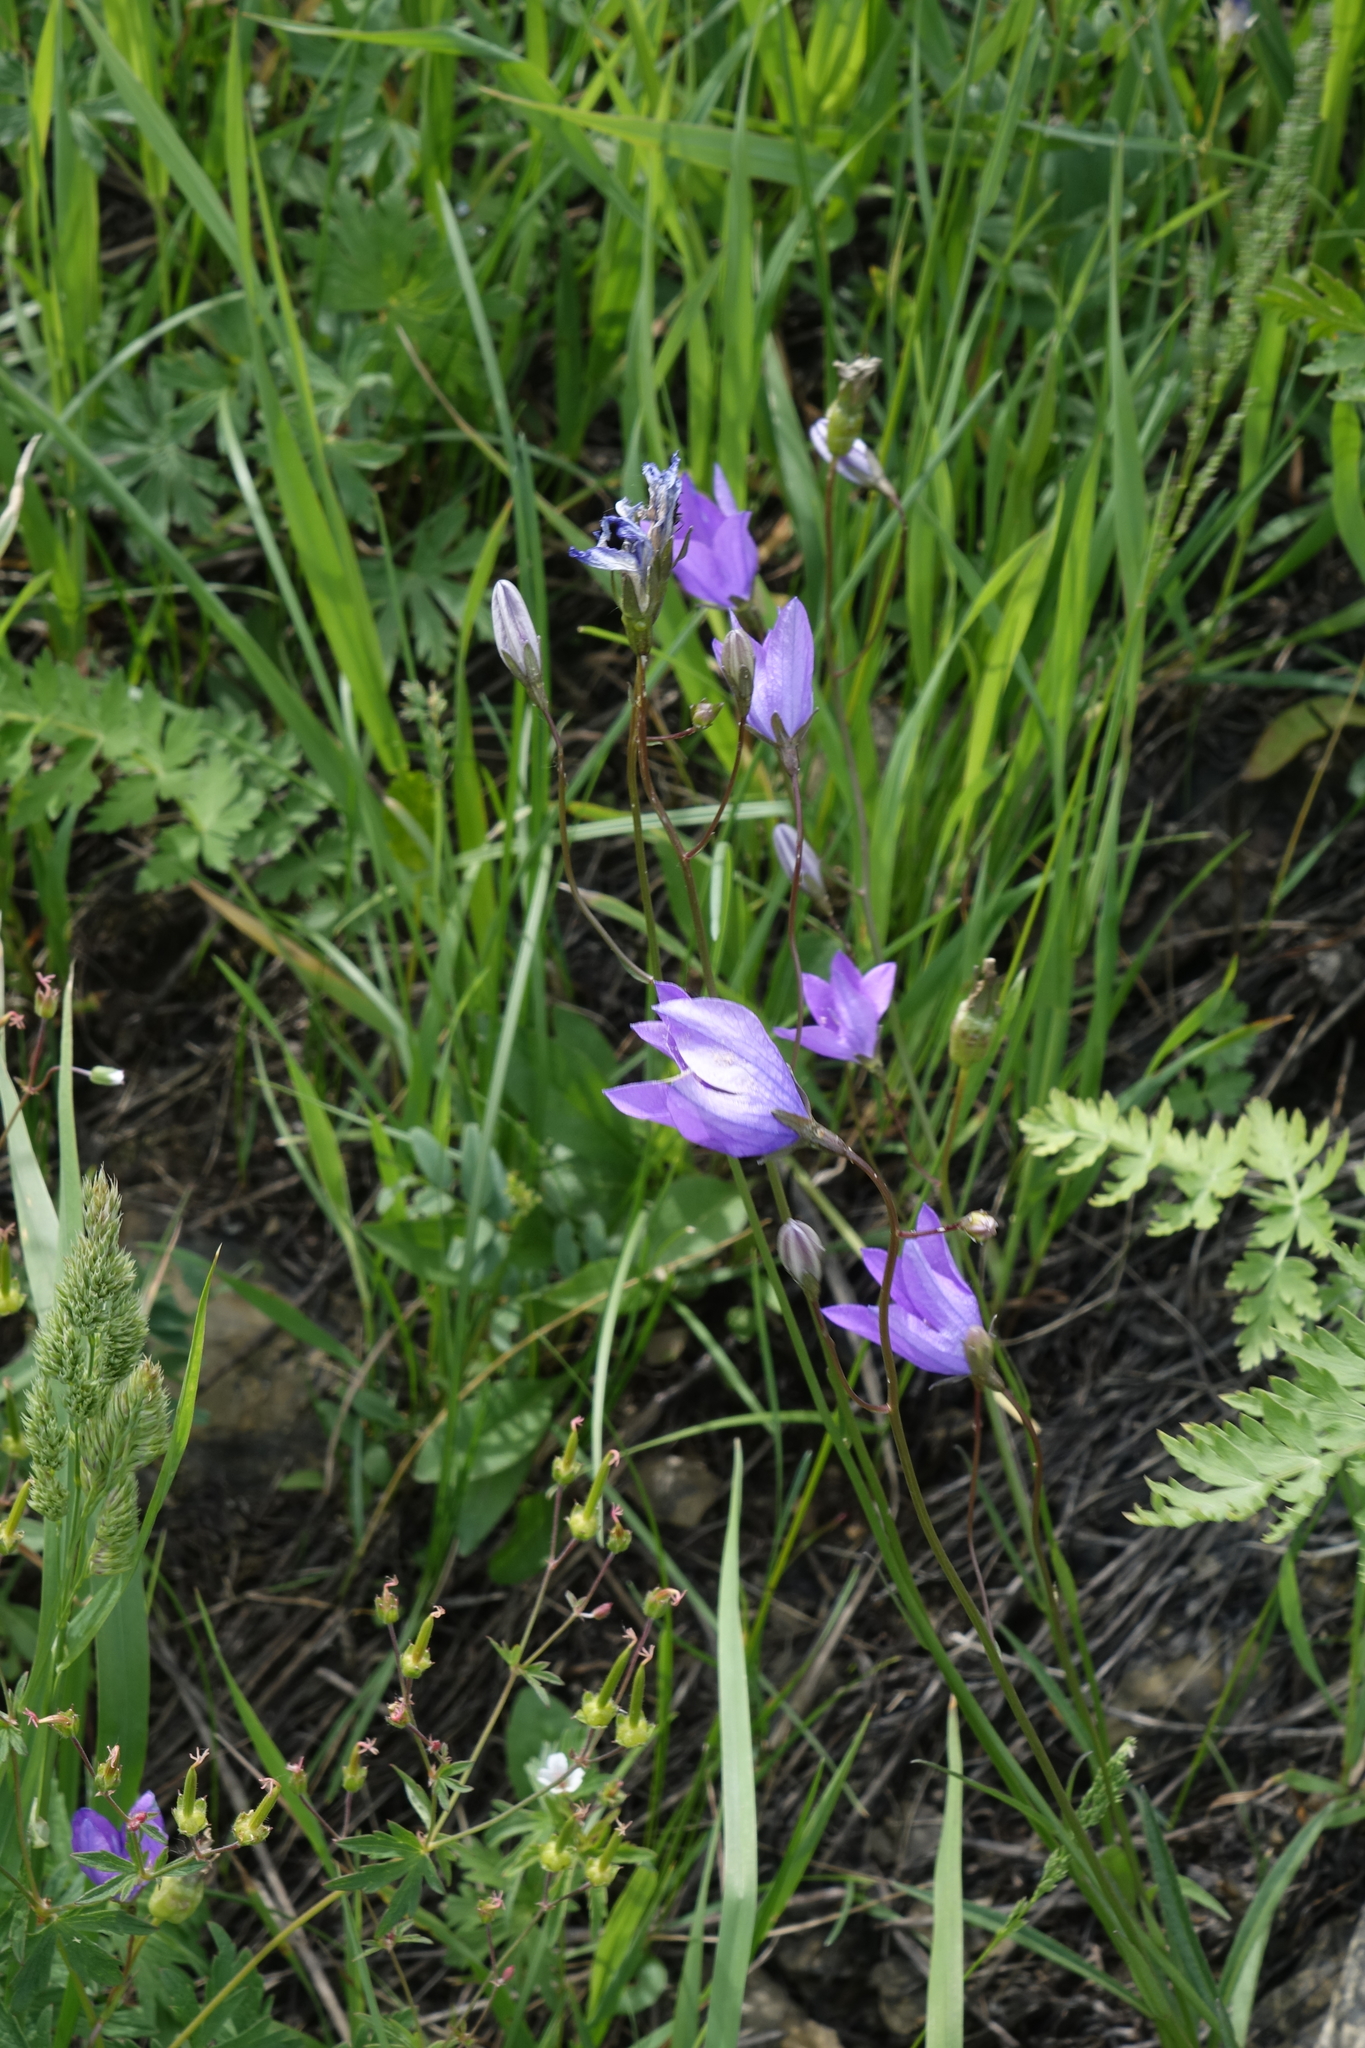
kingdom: Plantae
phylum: Tracheophyta
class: Magnoliopsida
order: Asterales
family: Campanulaceae
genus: Campanula
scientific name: Campanula stevenii
